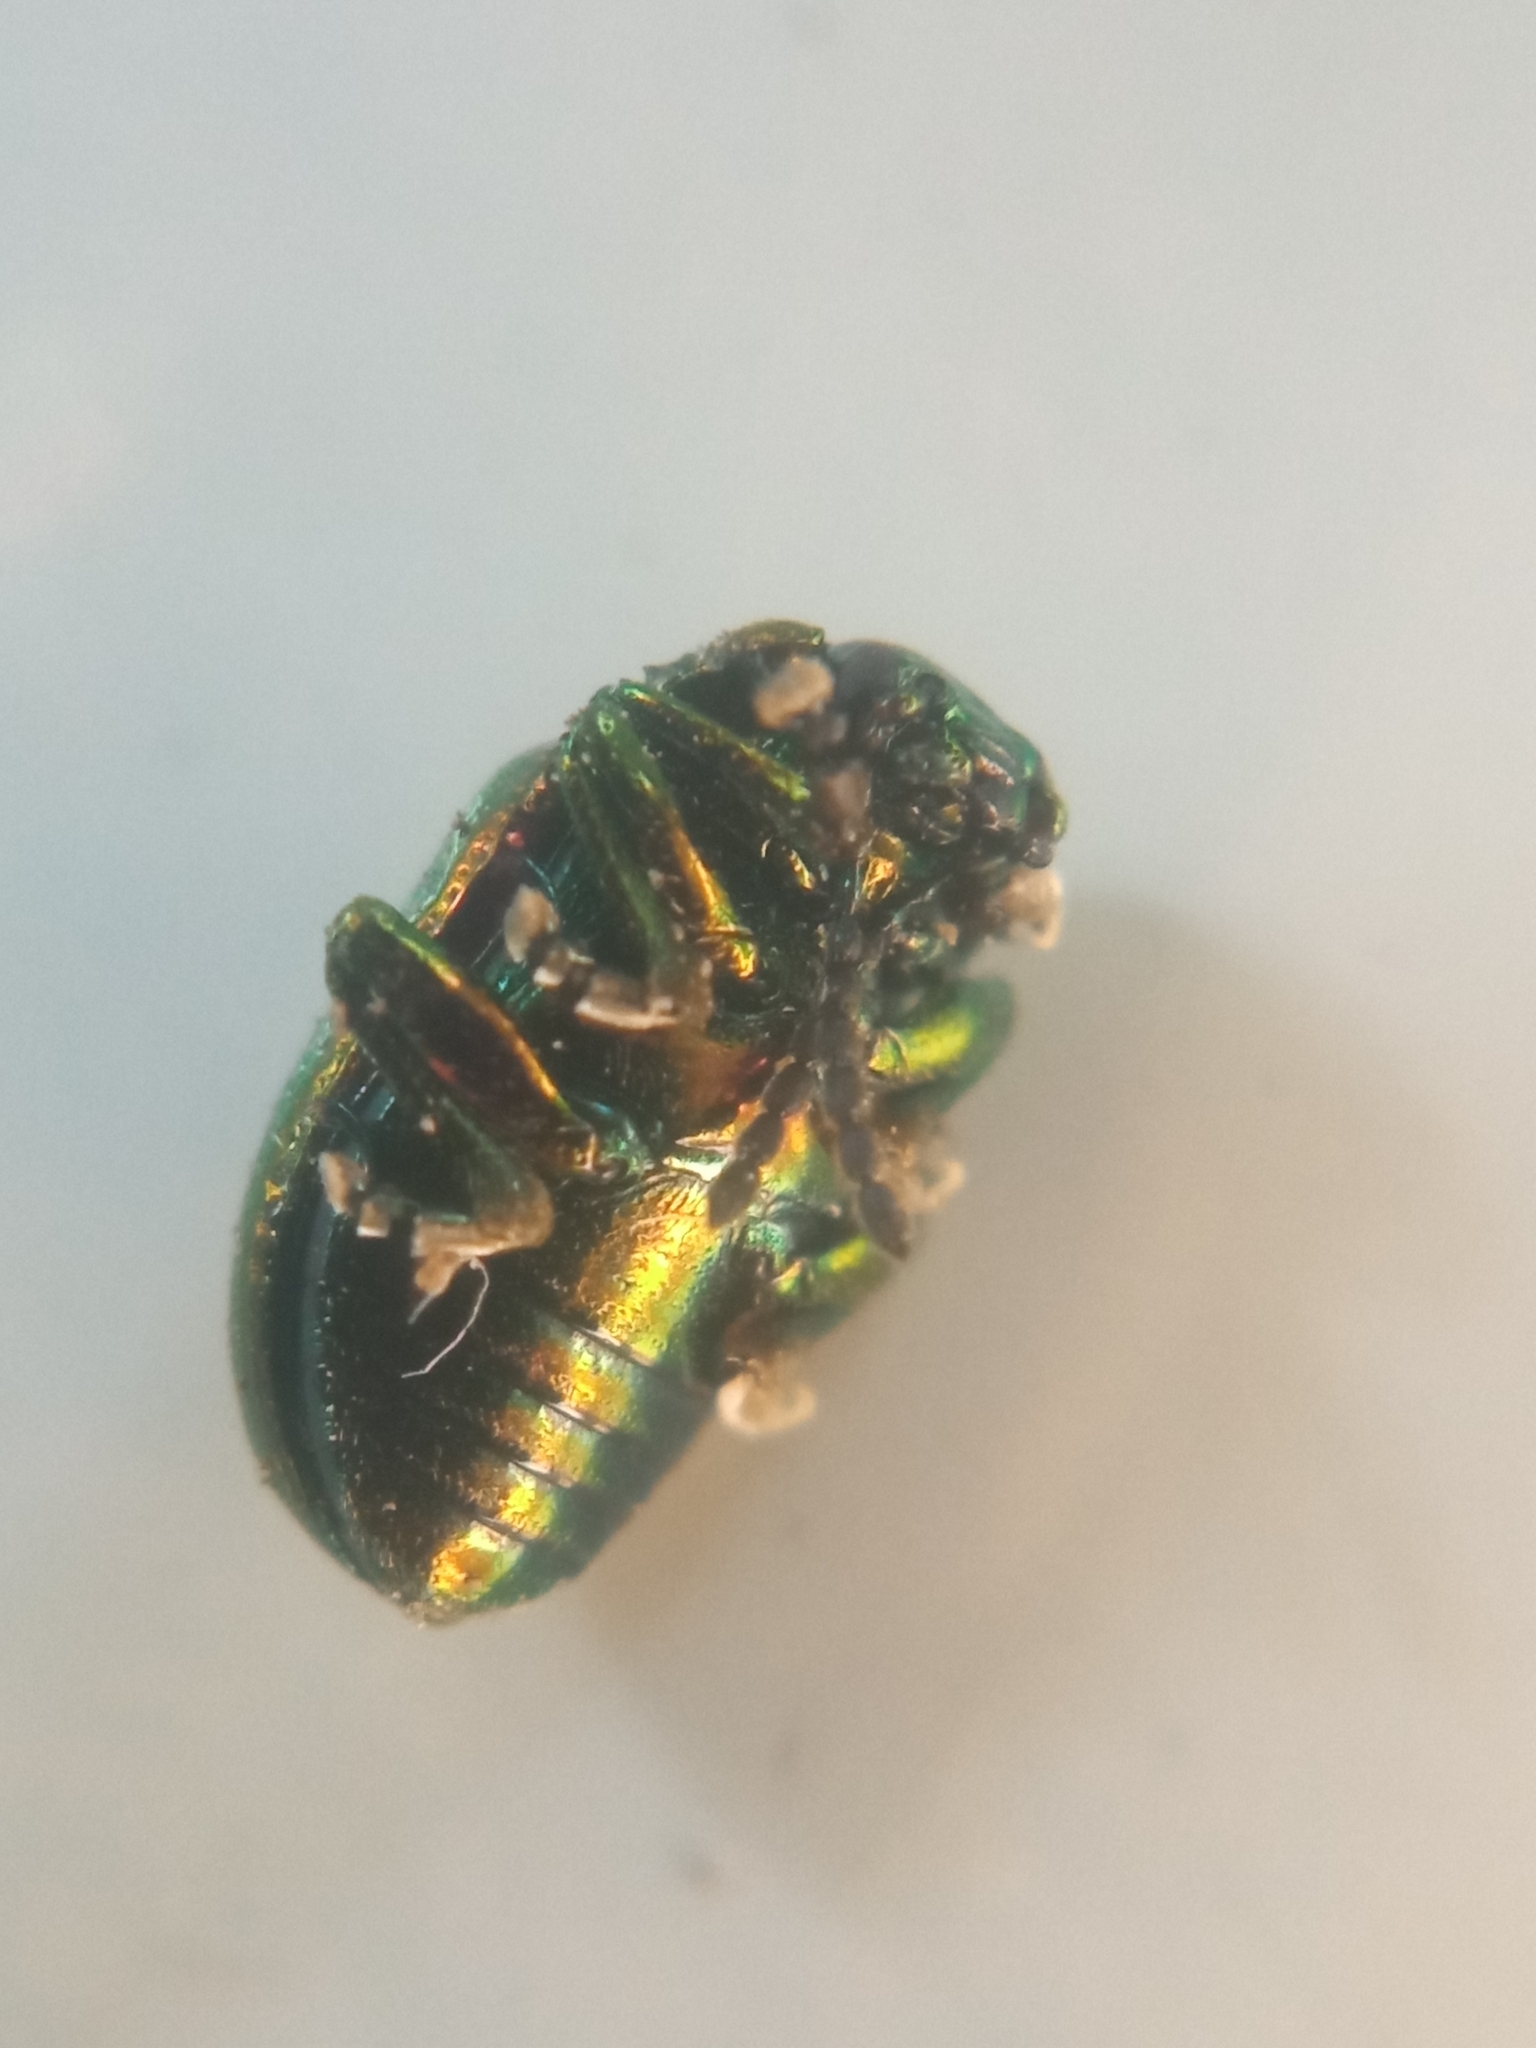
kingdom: Animalia
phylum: Arthropoda
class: Insecta
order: Coleoptera
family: Chrysomelidae
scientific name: Chrysomelidae
